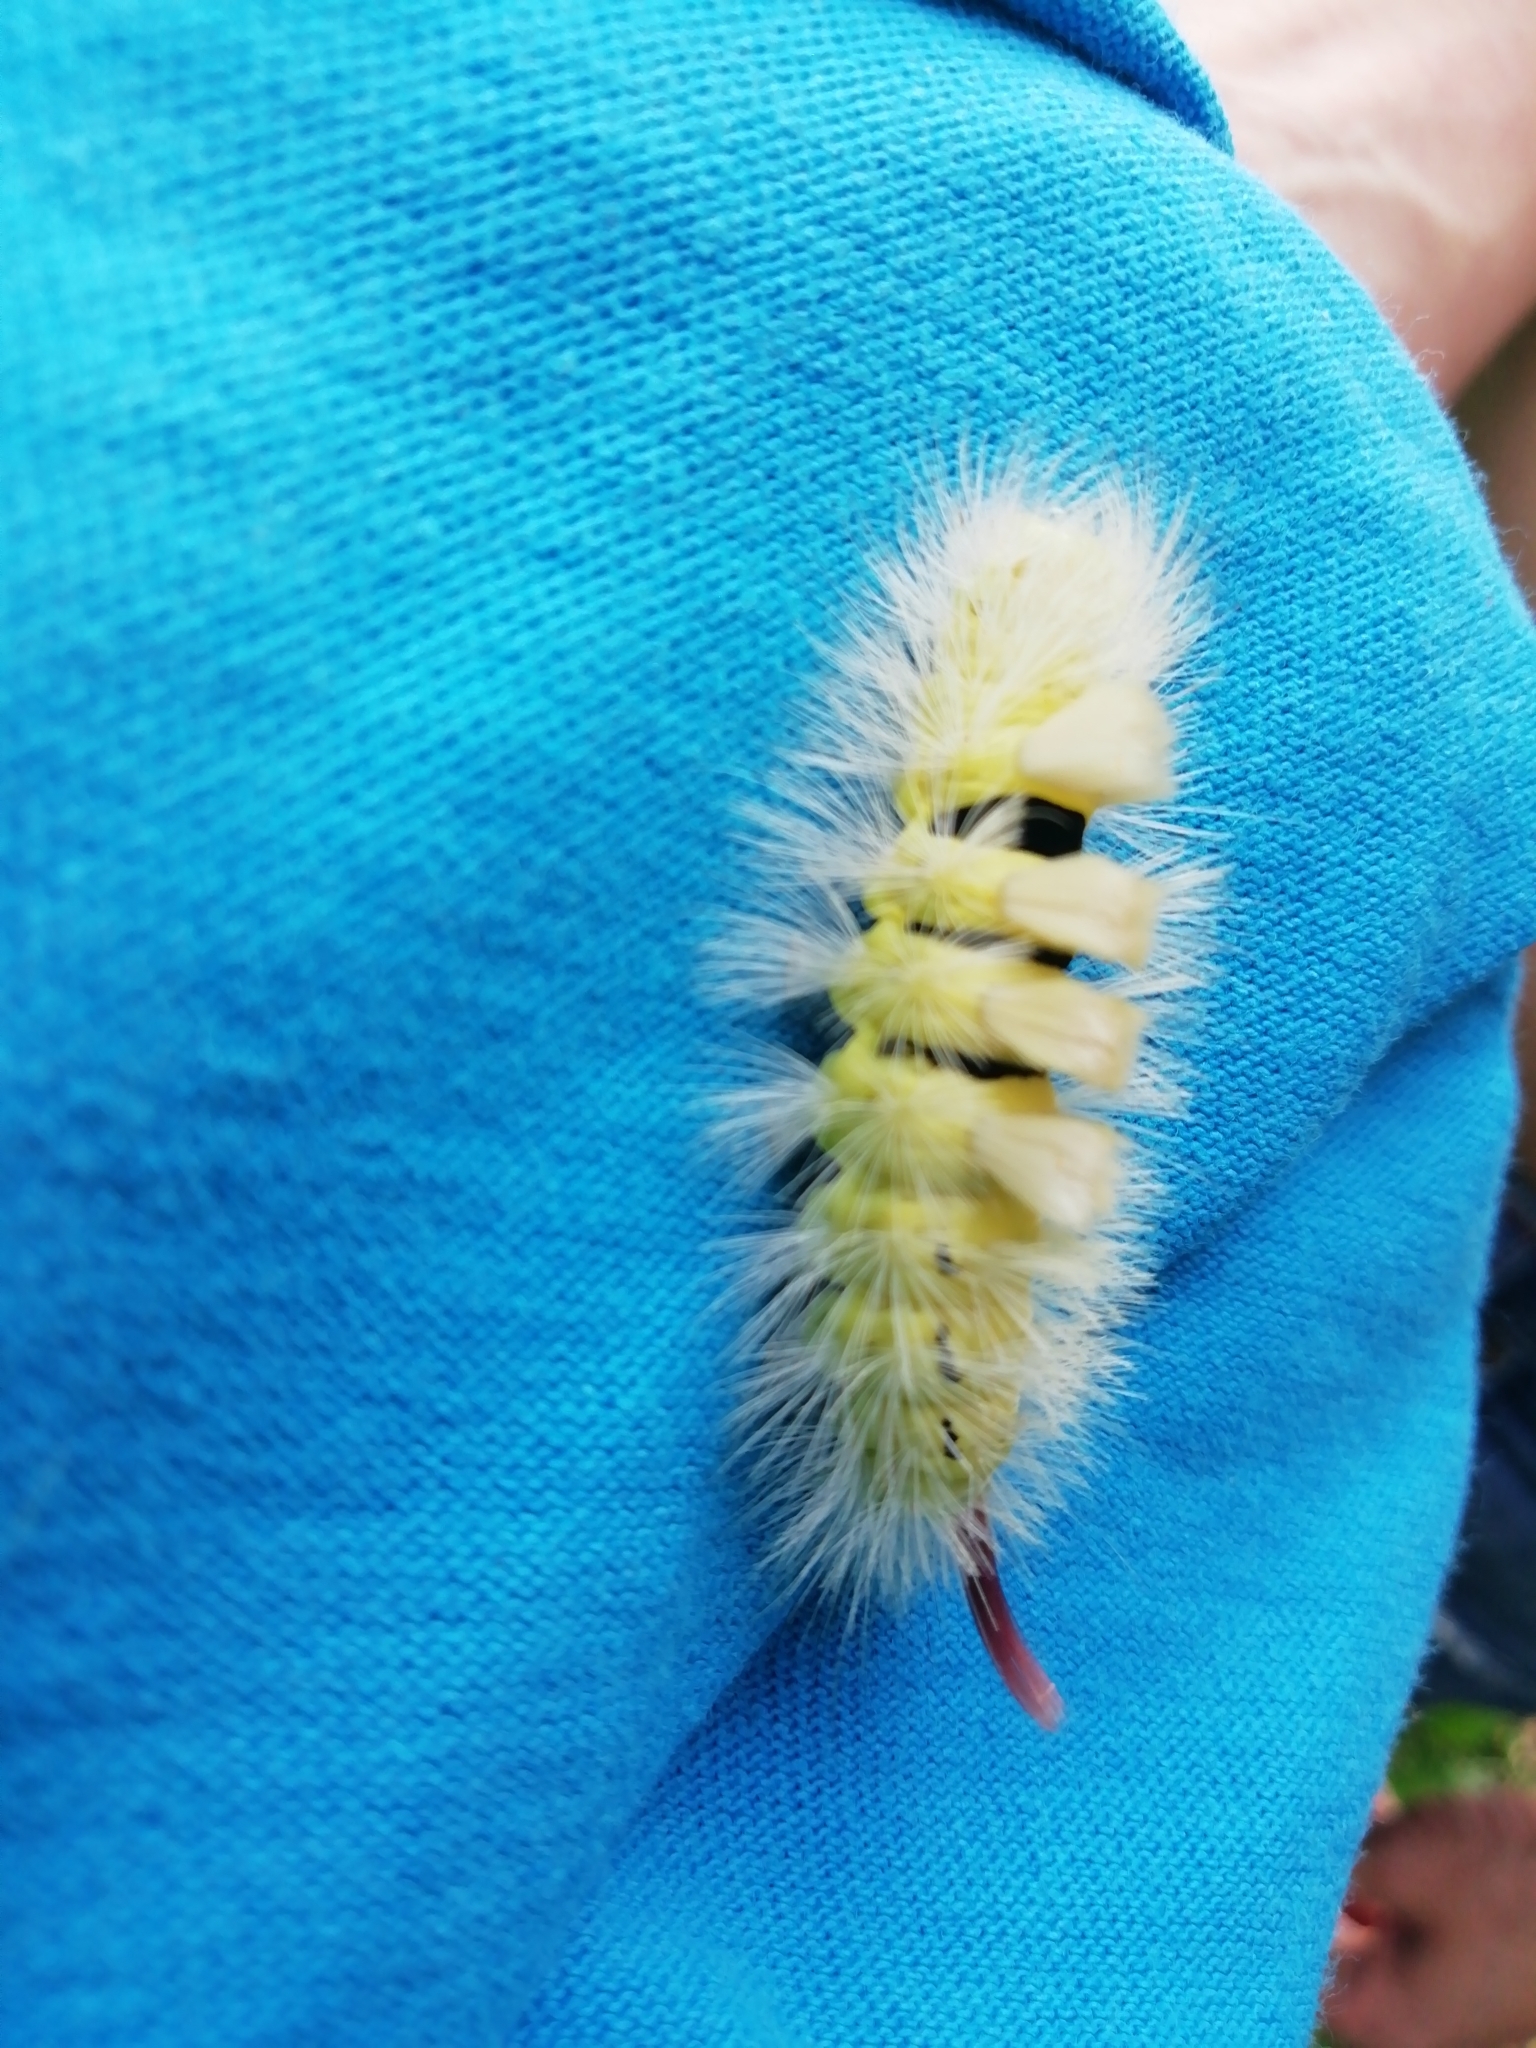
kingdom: Animalia
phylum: Arthropoda
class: Insecta
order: Lepidoptera
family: Erebidae
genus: Calliteara
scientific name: Calliteara pudibunda
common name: Pale tussock
